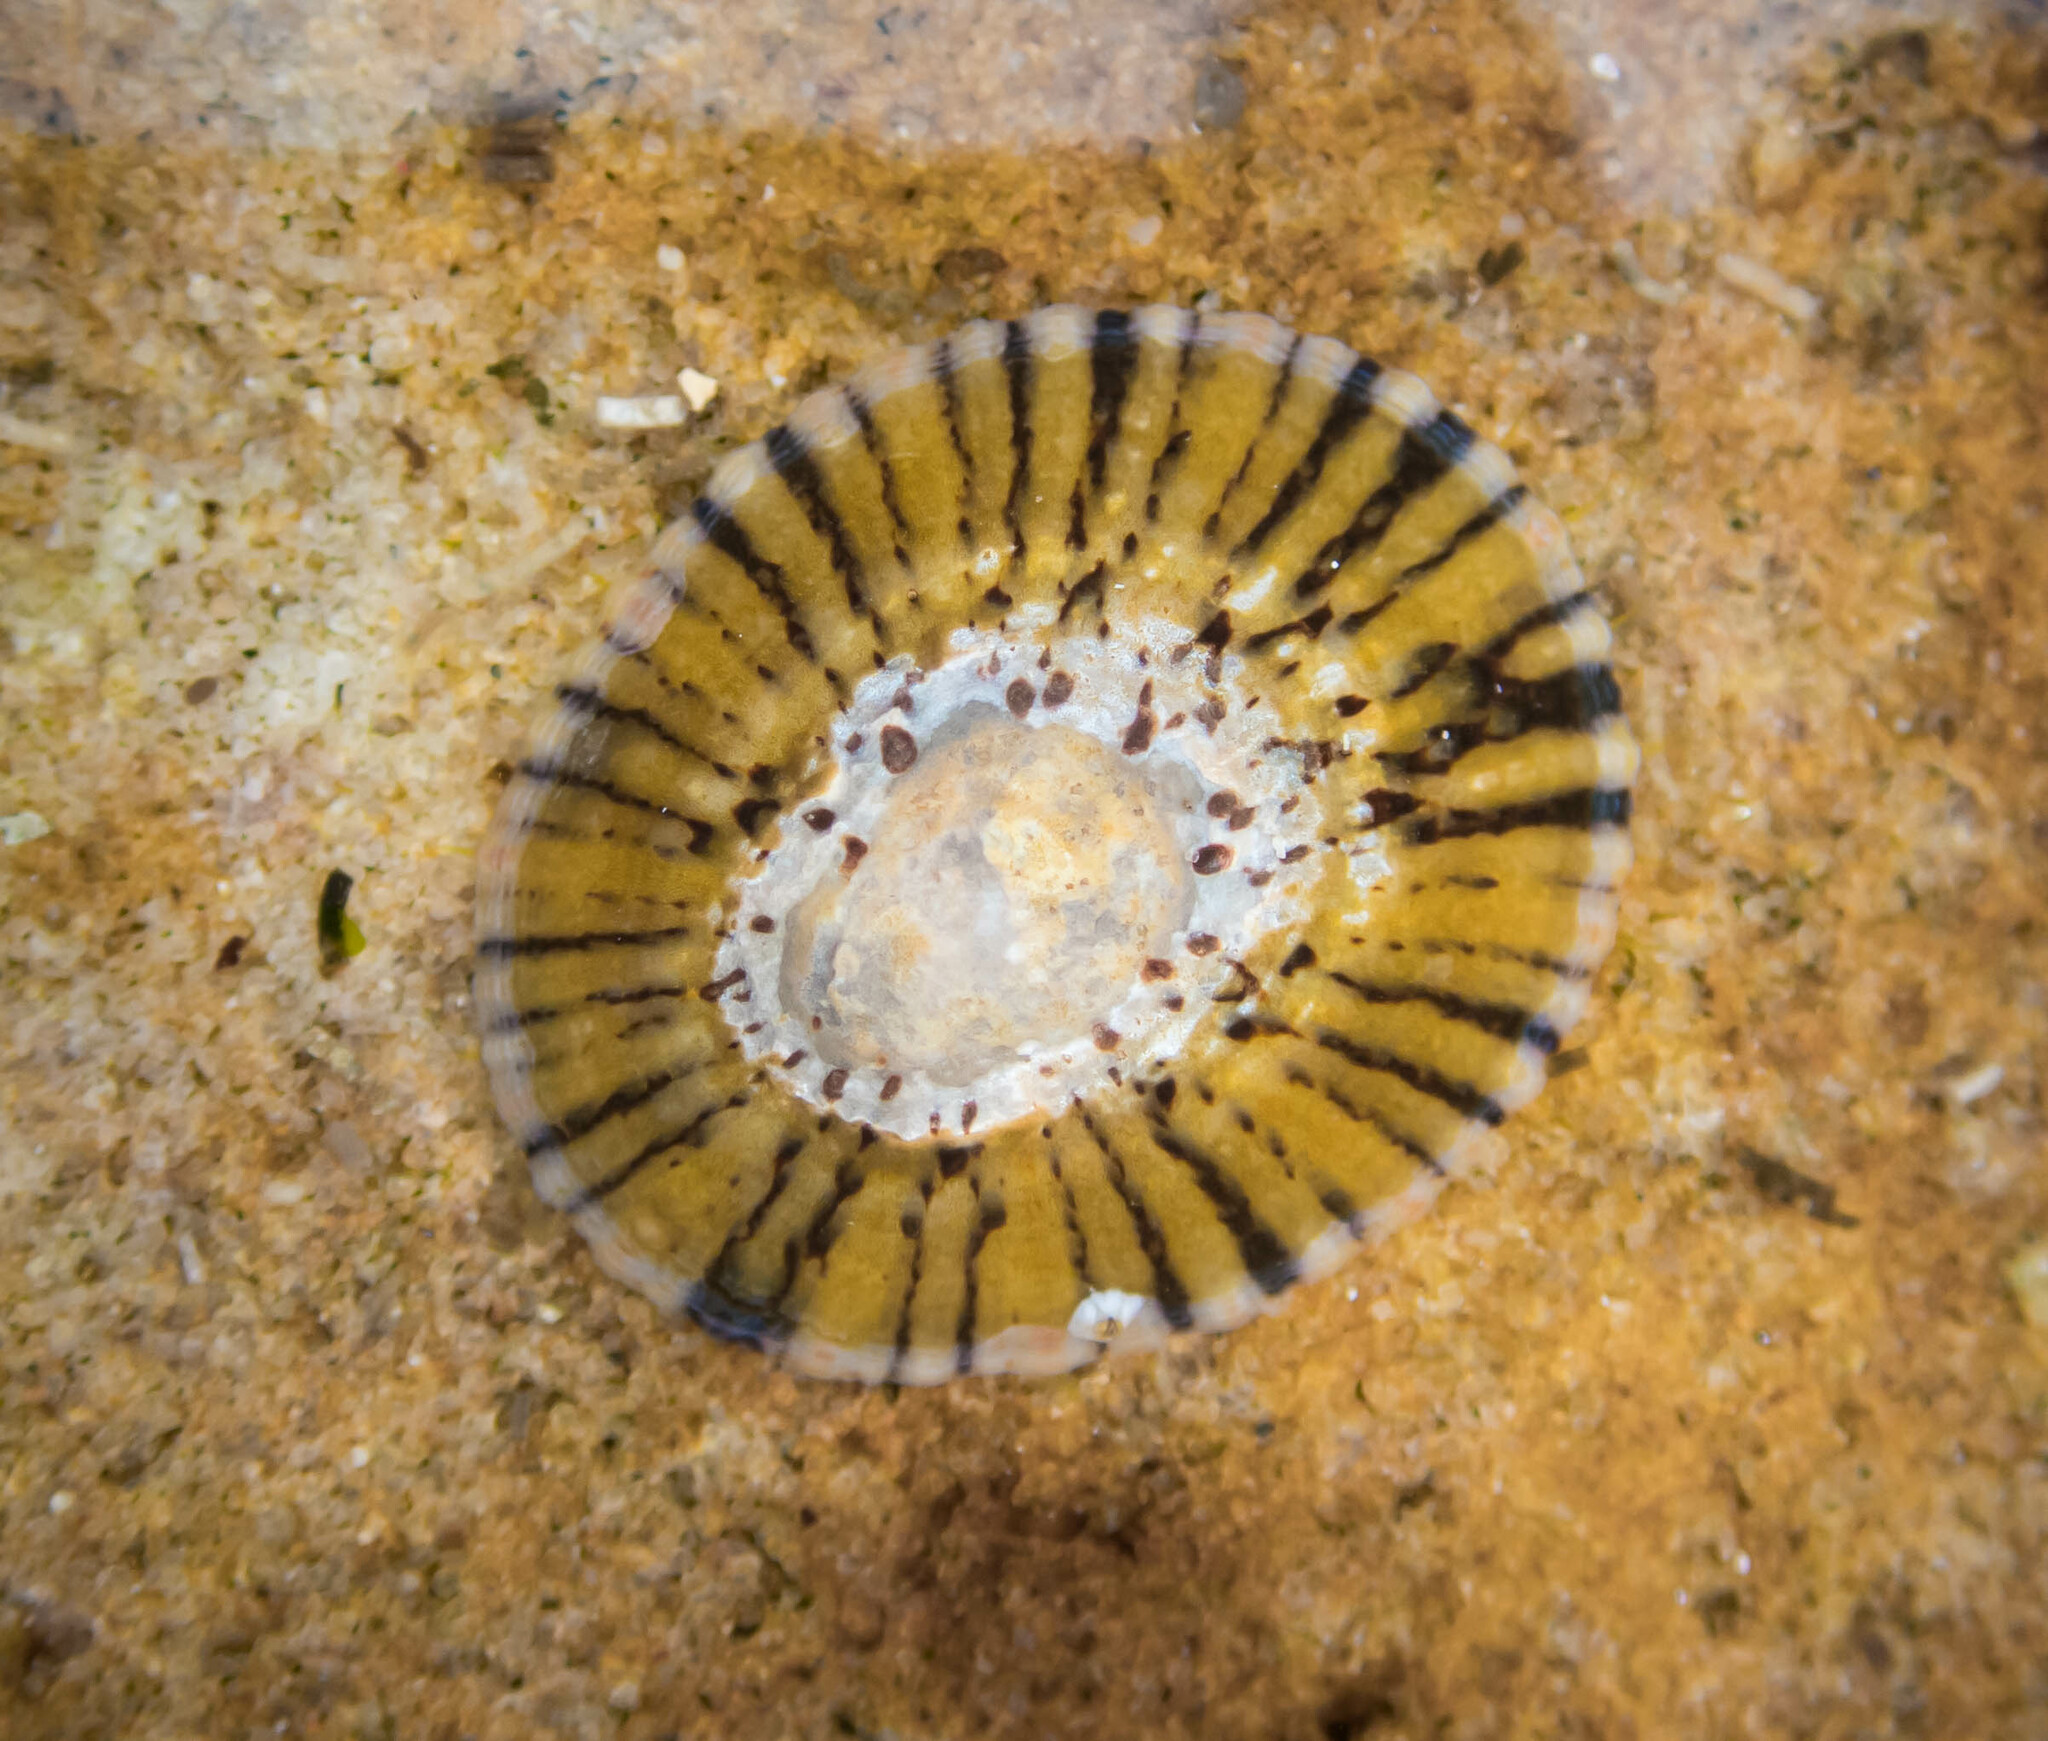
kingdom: Animalia
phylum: Mollusca
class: Gastropoda
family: Nacellidae
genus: Cellana
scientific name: Cellana tramoserica
